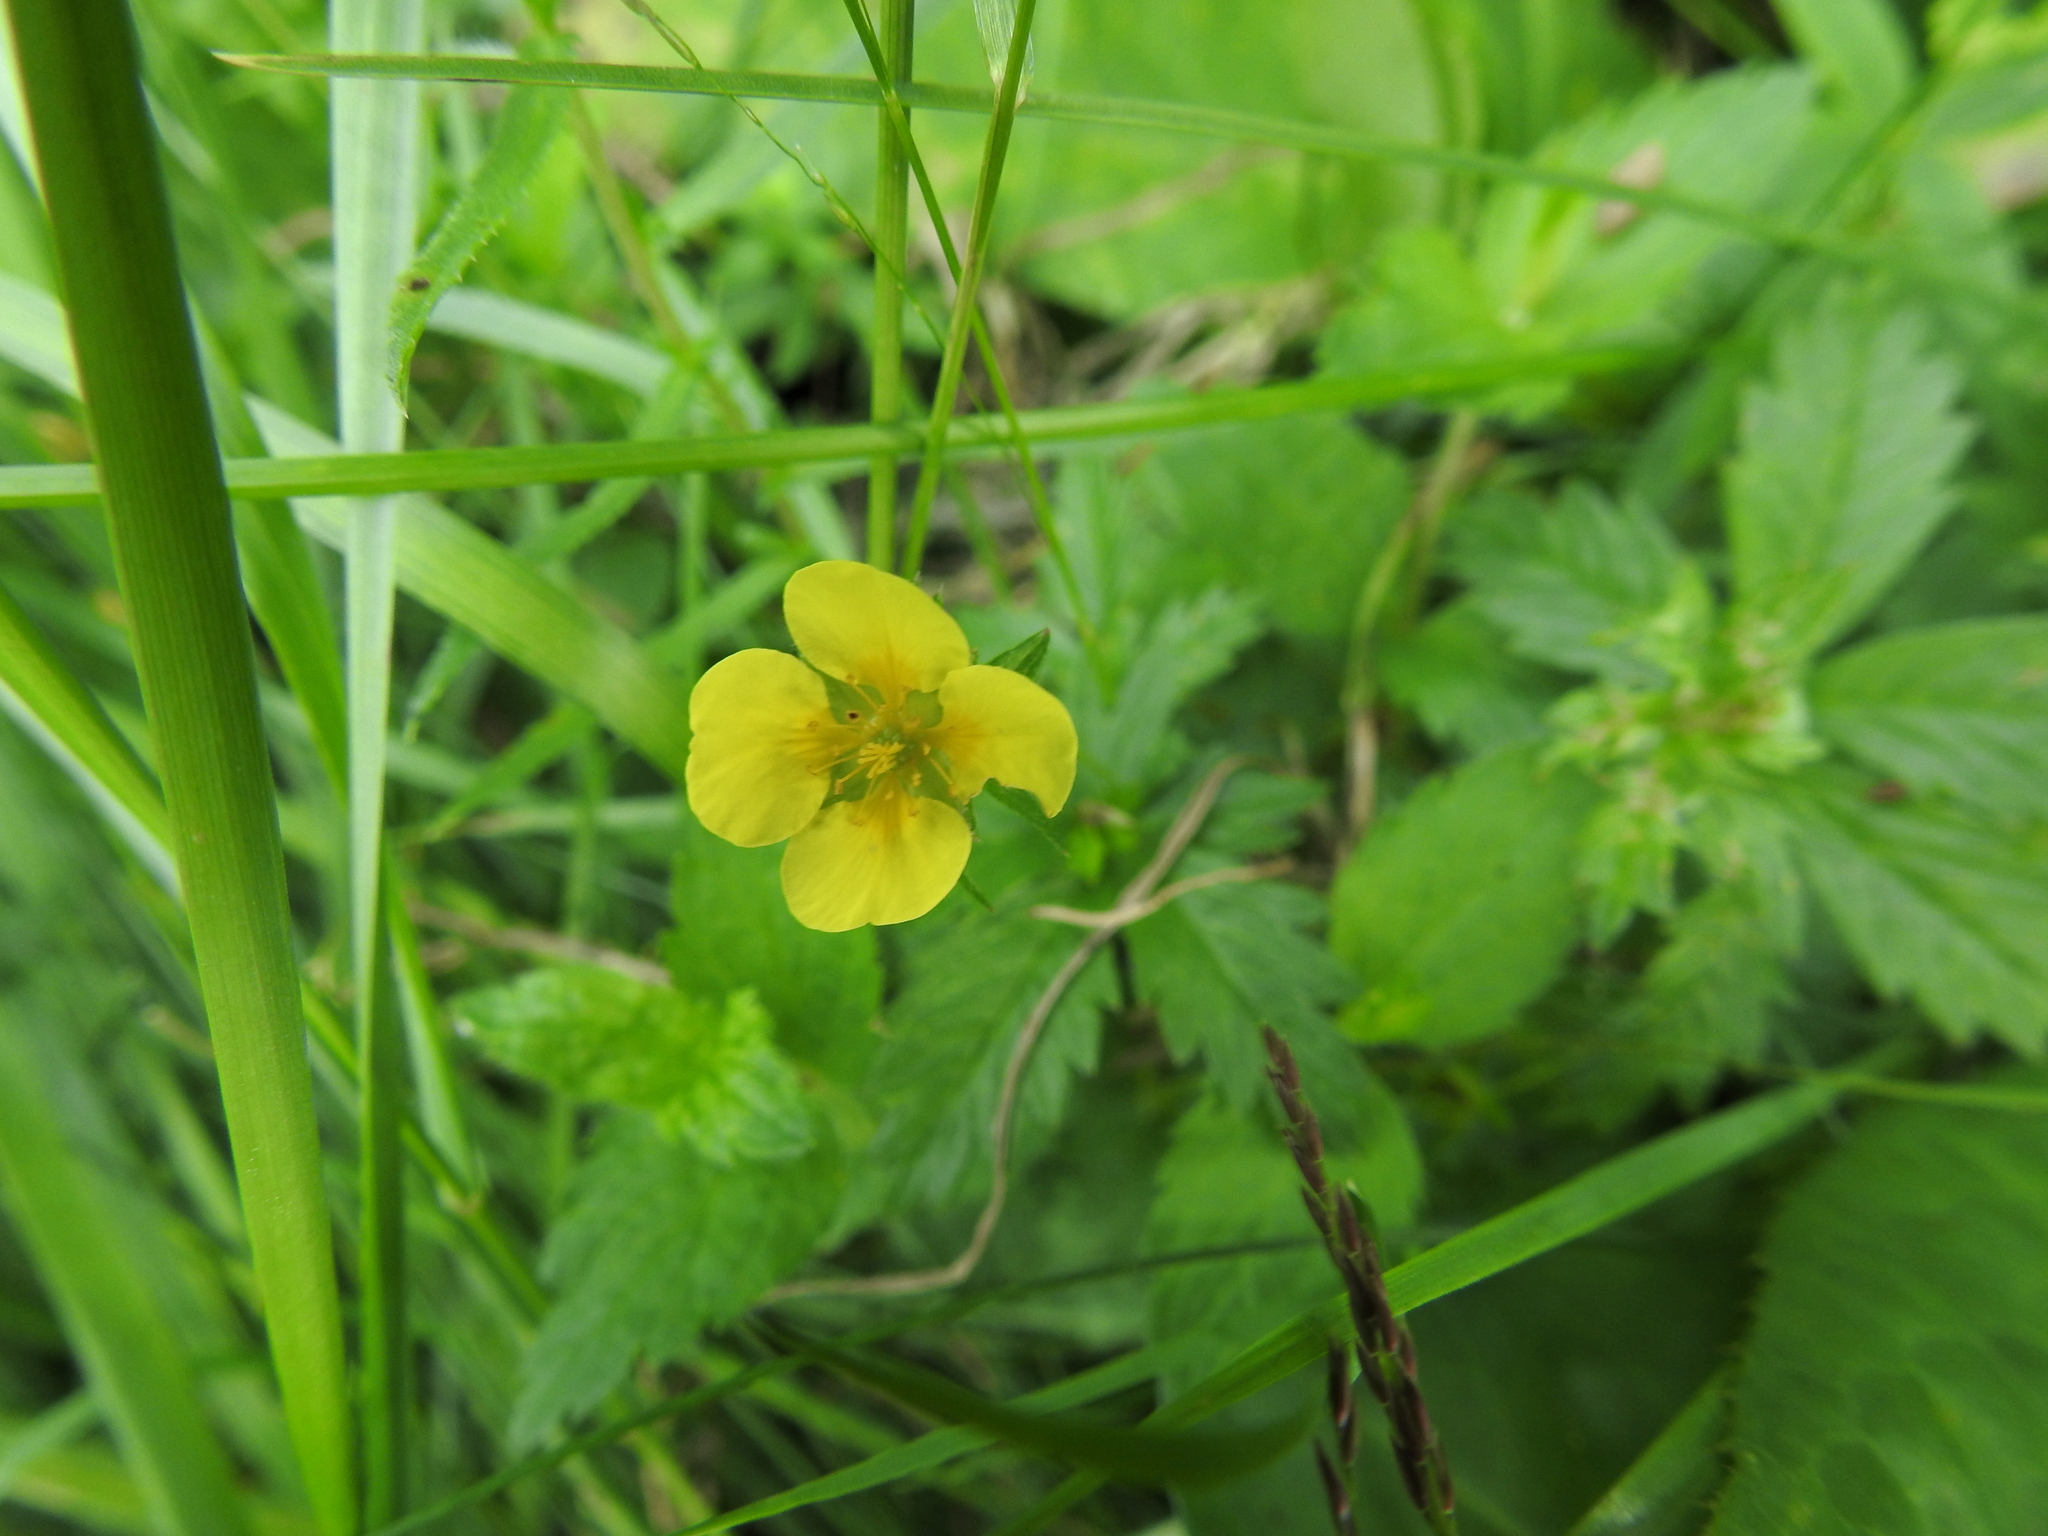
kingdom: Plantae
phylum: Tracheophyta
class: Magnoliopsida
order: Rosales
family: Rosaceae
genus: Potentilla
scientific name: Potentilla erecta
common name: Tormentil
